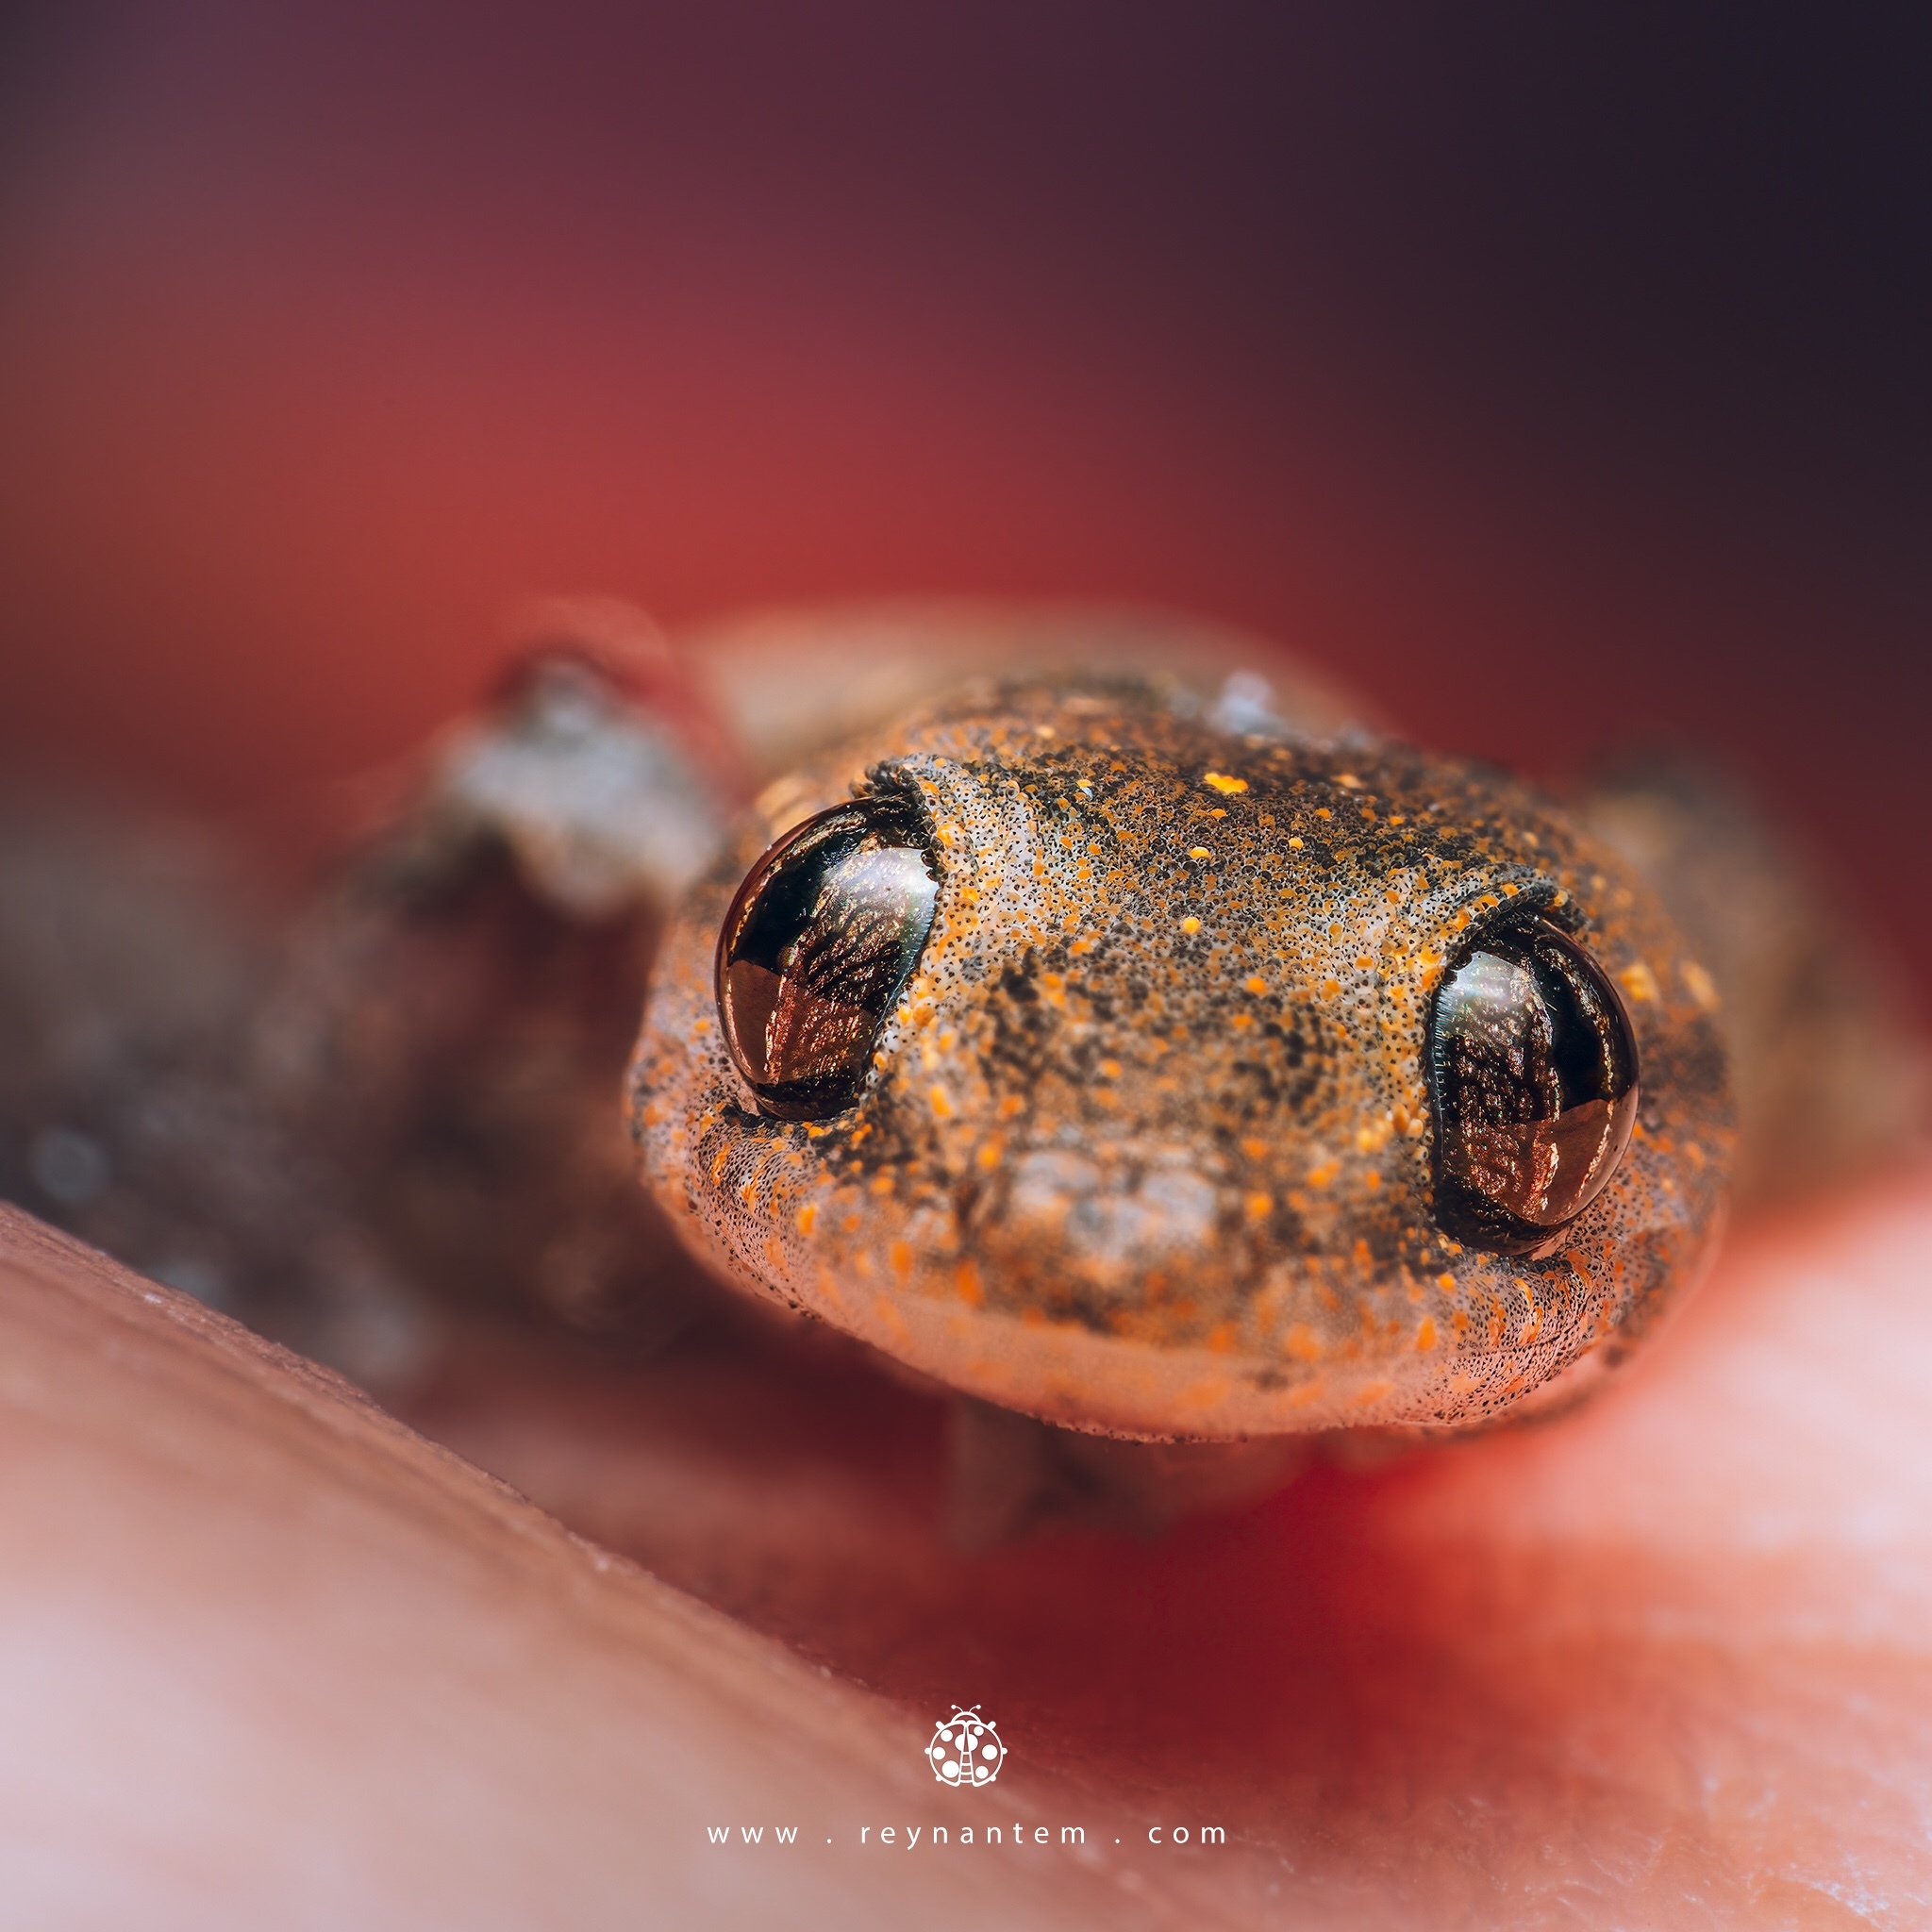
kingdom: Animalia
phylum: Chordata
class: Squamata
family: Gekkonidae
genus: Hemidactylus
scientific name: Hemidactylus frenatus
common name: Common house gecko
